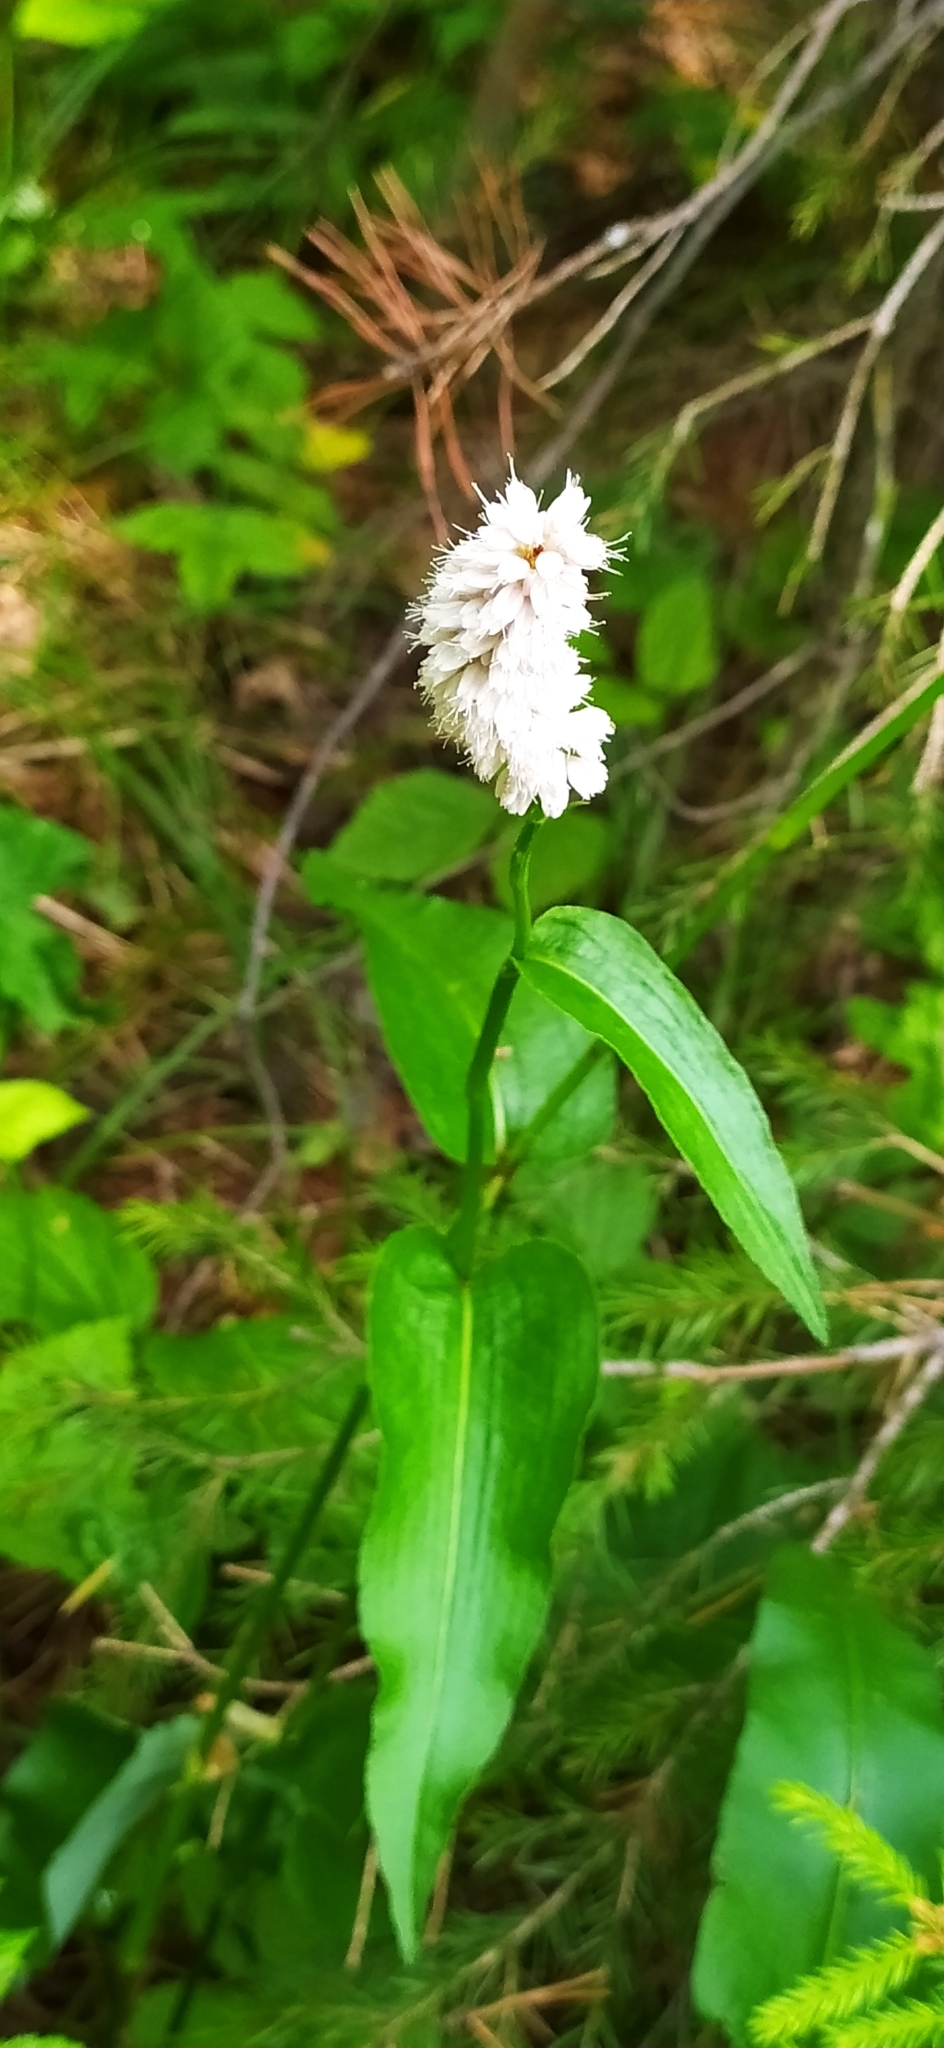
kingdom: Plantae
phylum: Tracheophyta
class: Magnoliopsida
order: Caryophyllales
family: Polygonaceae
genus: Bistorta
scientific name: Bistorta officinalis
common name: Common bistort
